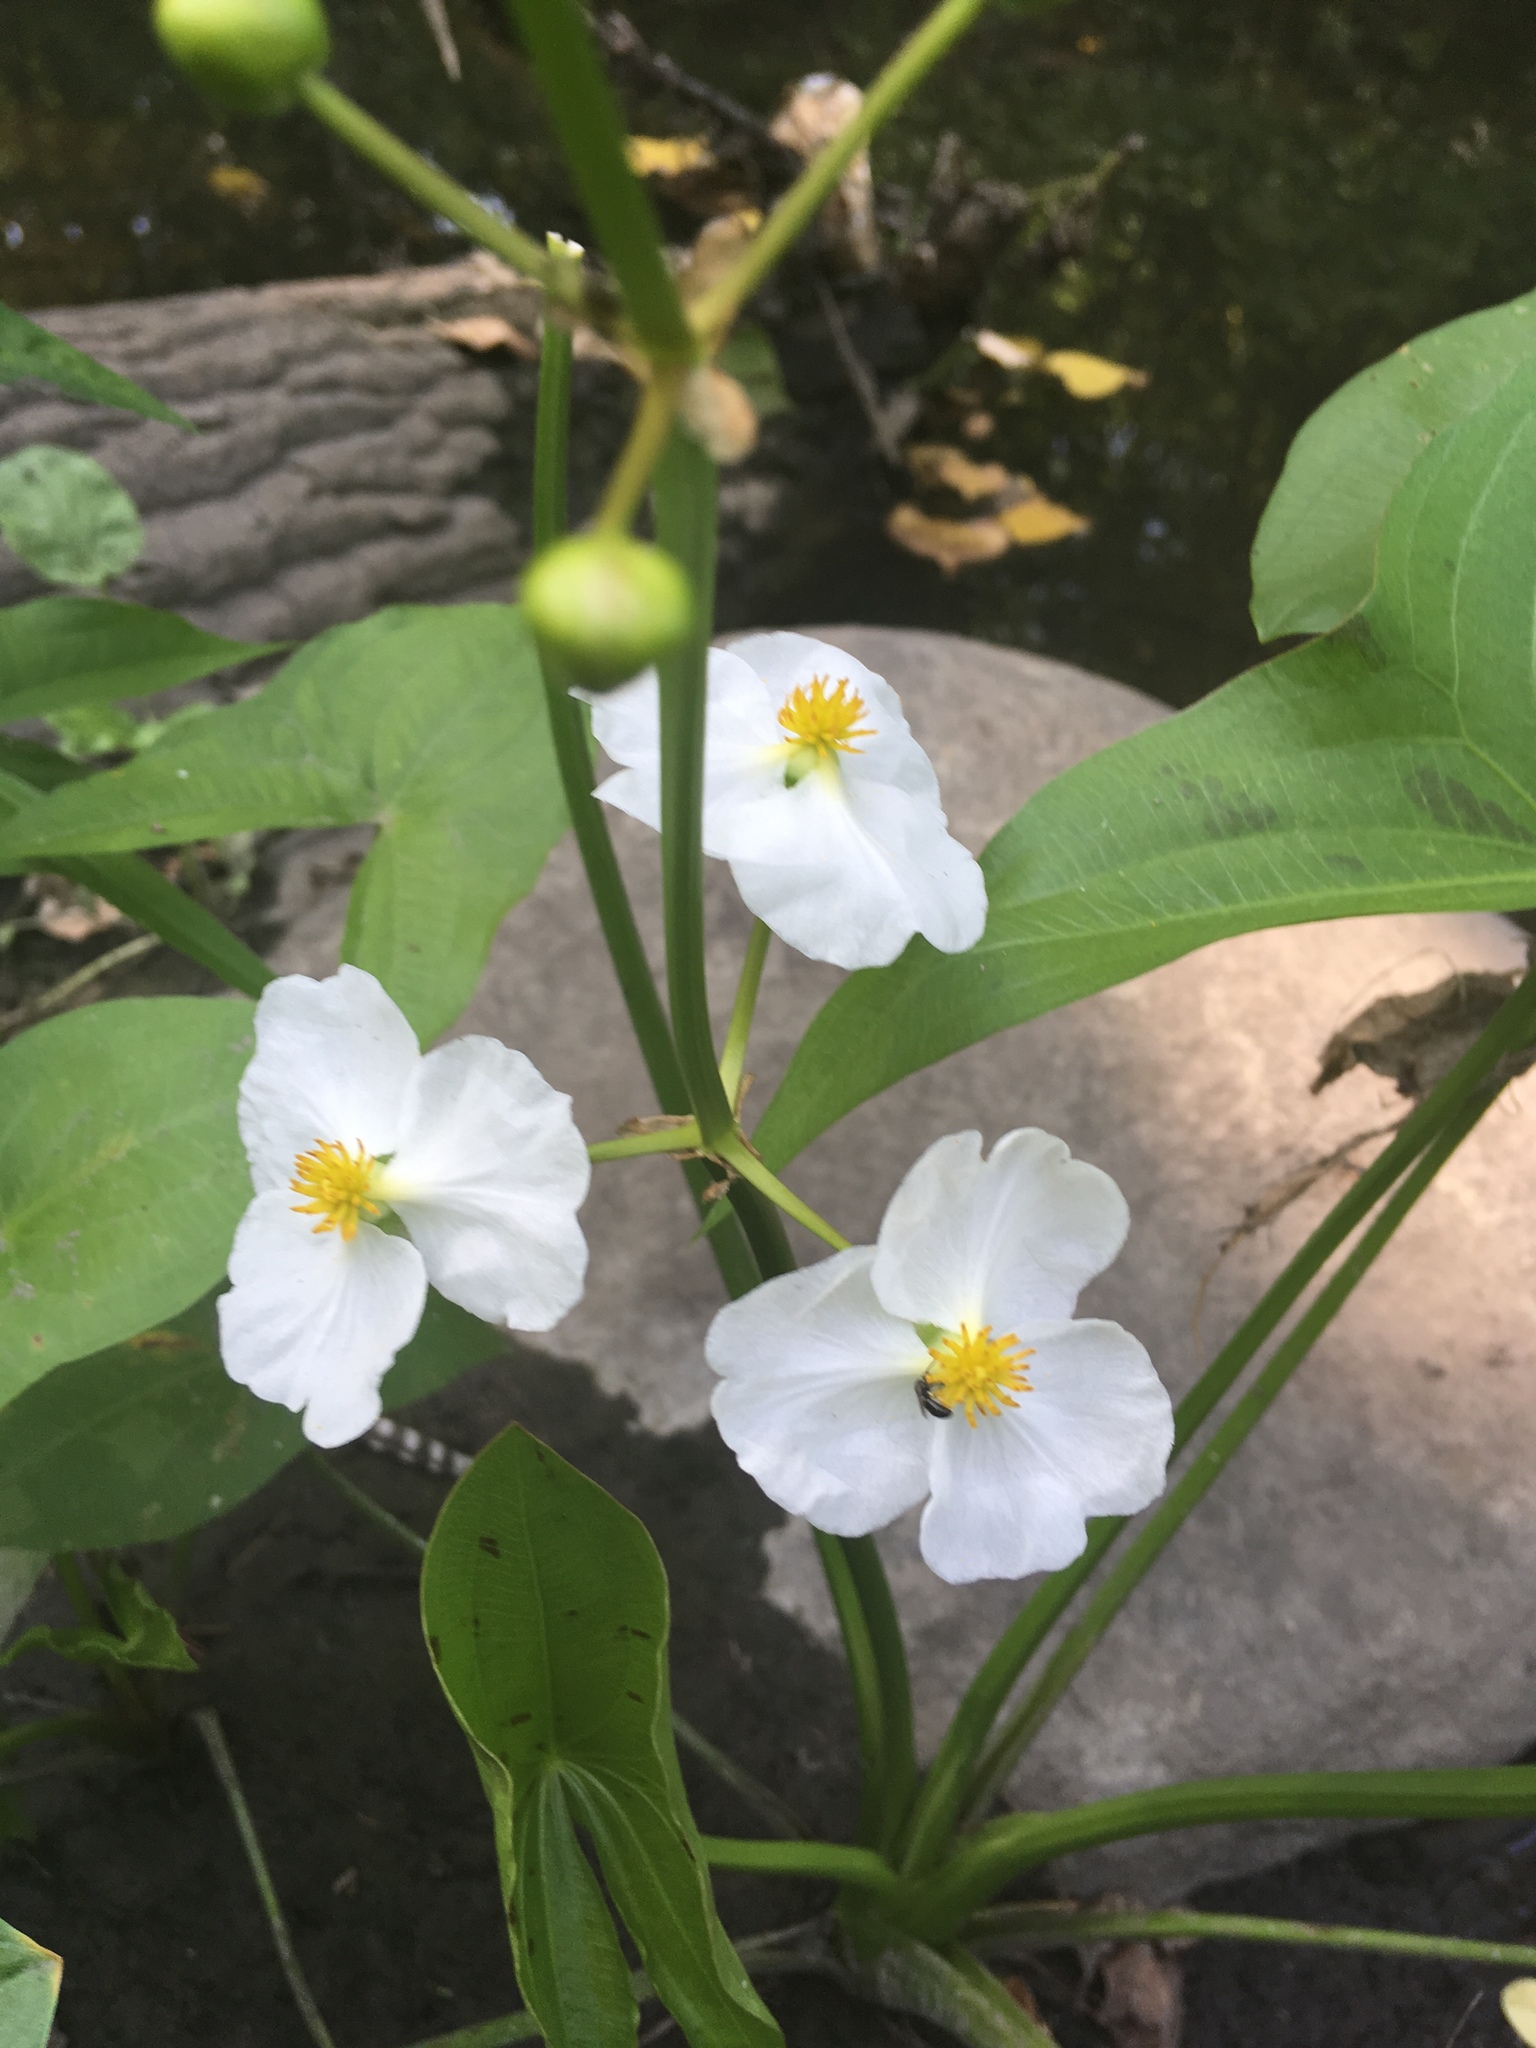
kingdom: Plantae
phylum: Tracheophyta
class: Liliopsida
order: Alismatales
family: Alismataceae
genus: Sagittaria
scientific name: Sagittaria latifolia
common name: Duck-potato
